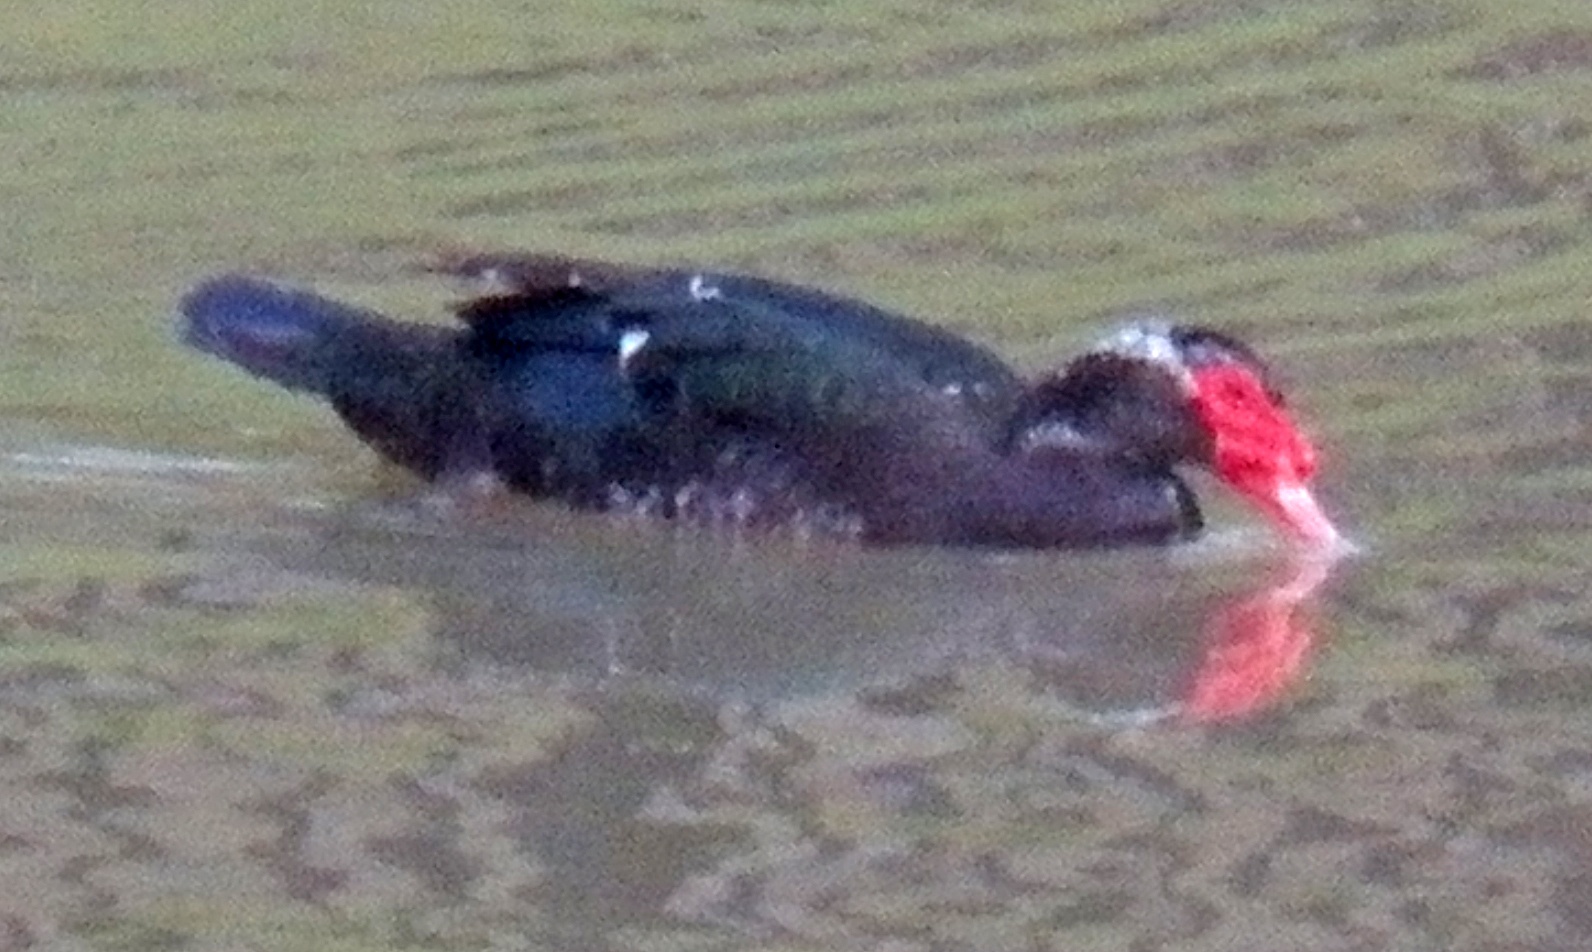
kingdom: Animalia
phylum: Chordata
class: Aves
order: Anseriformes
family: Anatidae
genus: Cairina
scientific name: Cairina moschata
